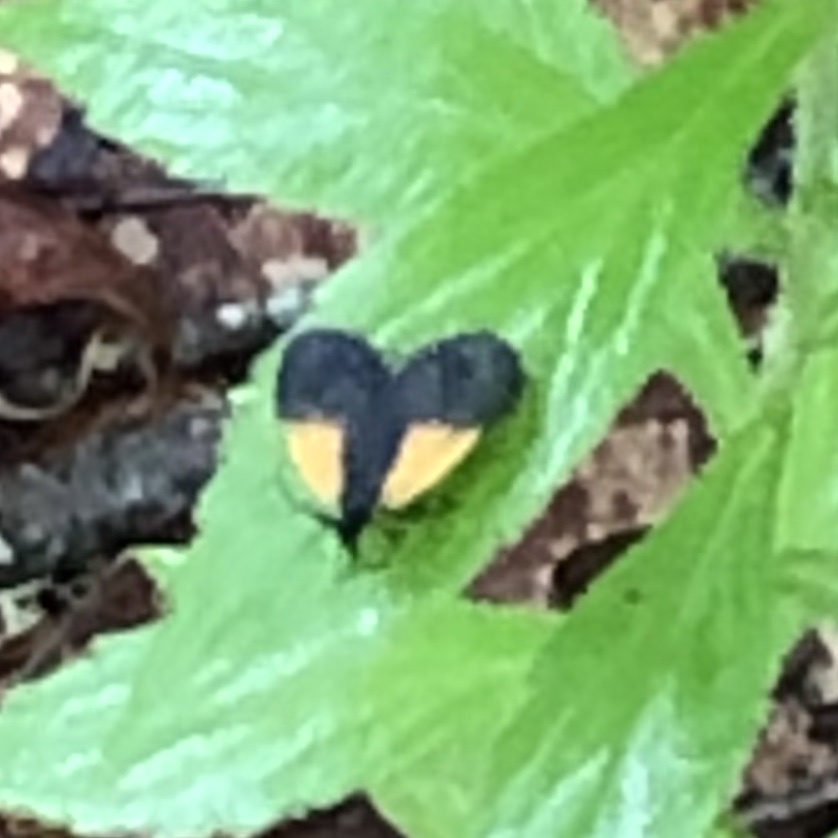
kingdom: Animalia
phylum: Arthropoda
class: Insecta
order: Lepidoptera
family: Zygaenidae
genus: Malthaca
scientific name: Malthaca dimidiata
